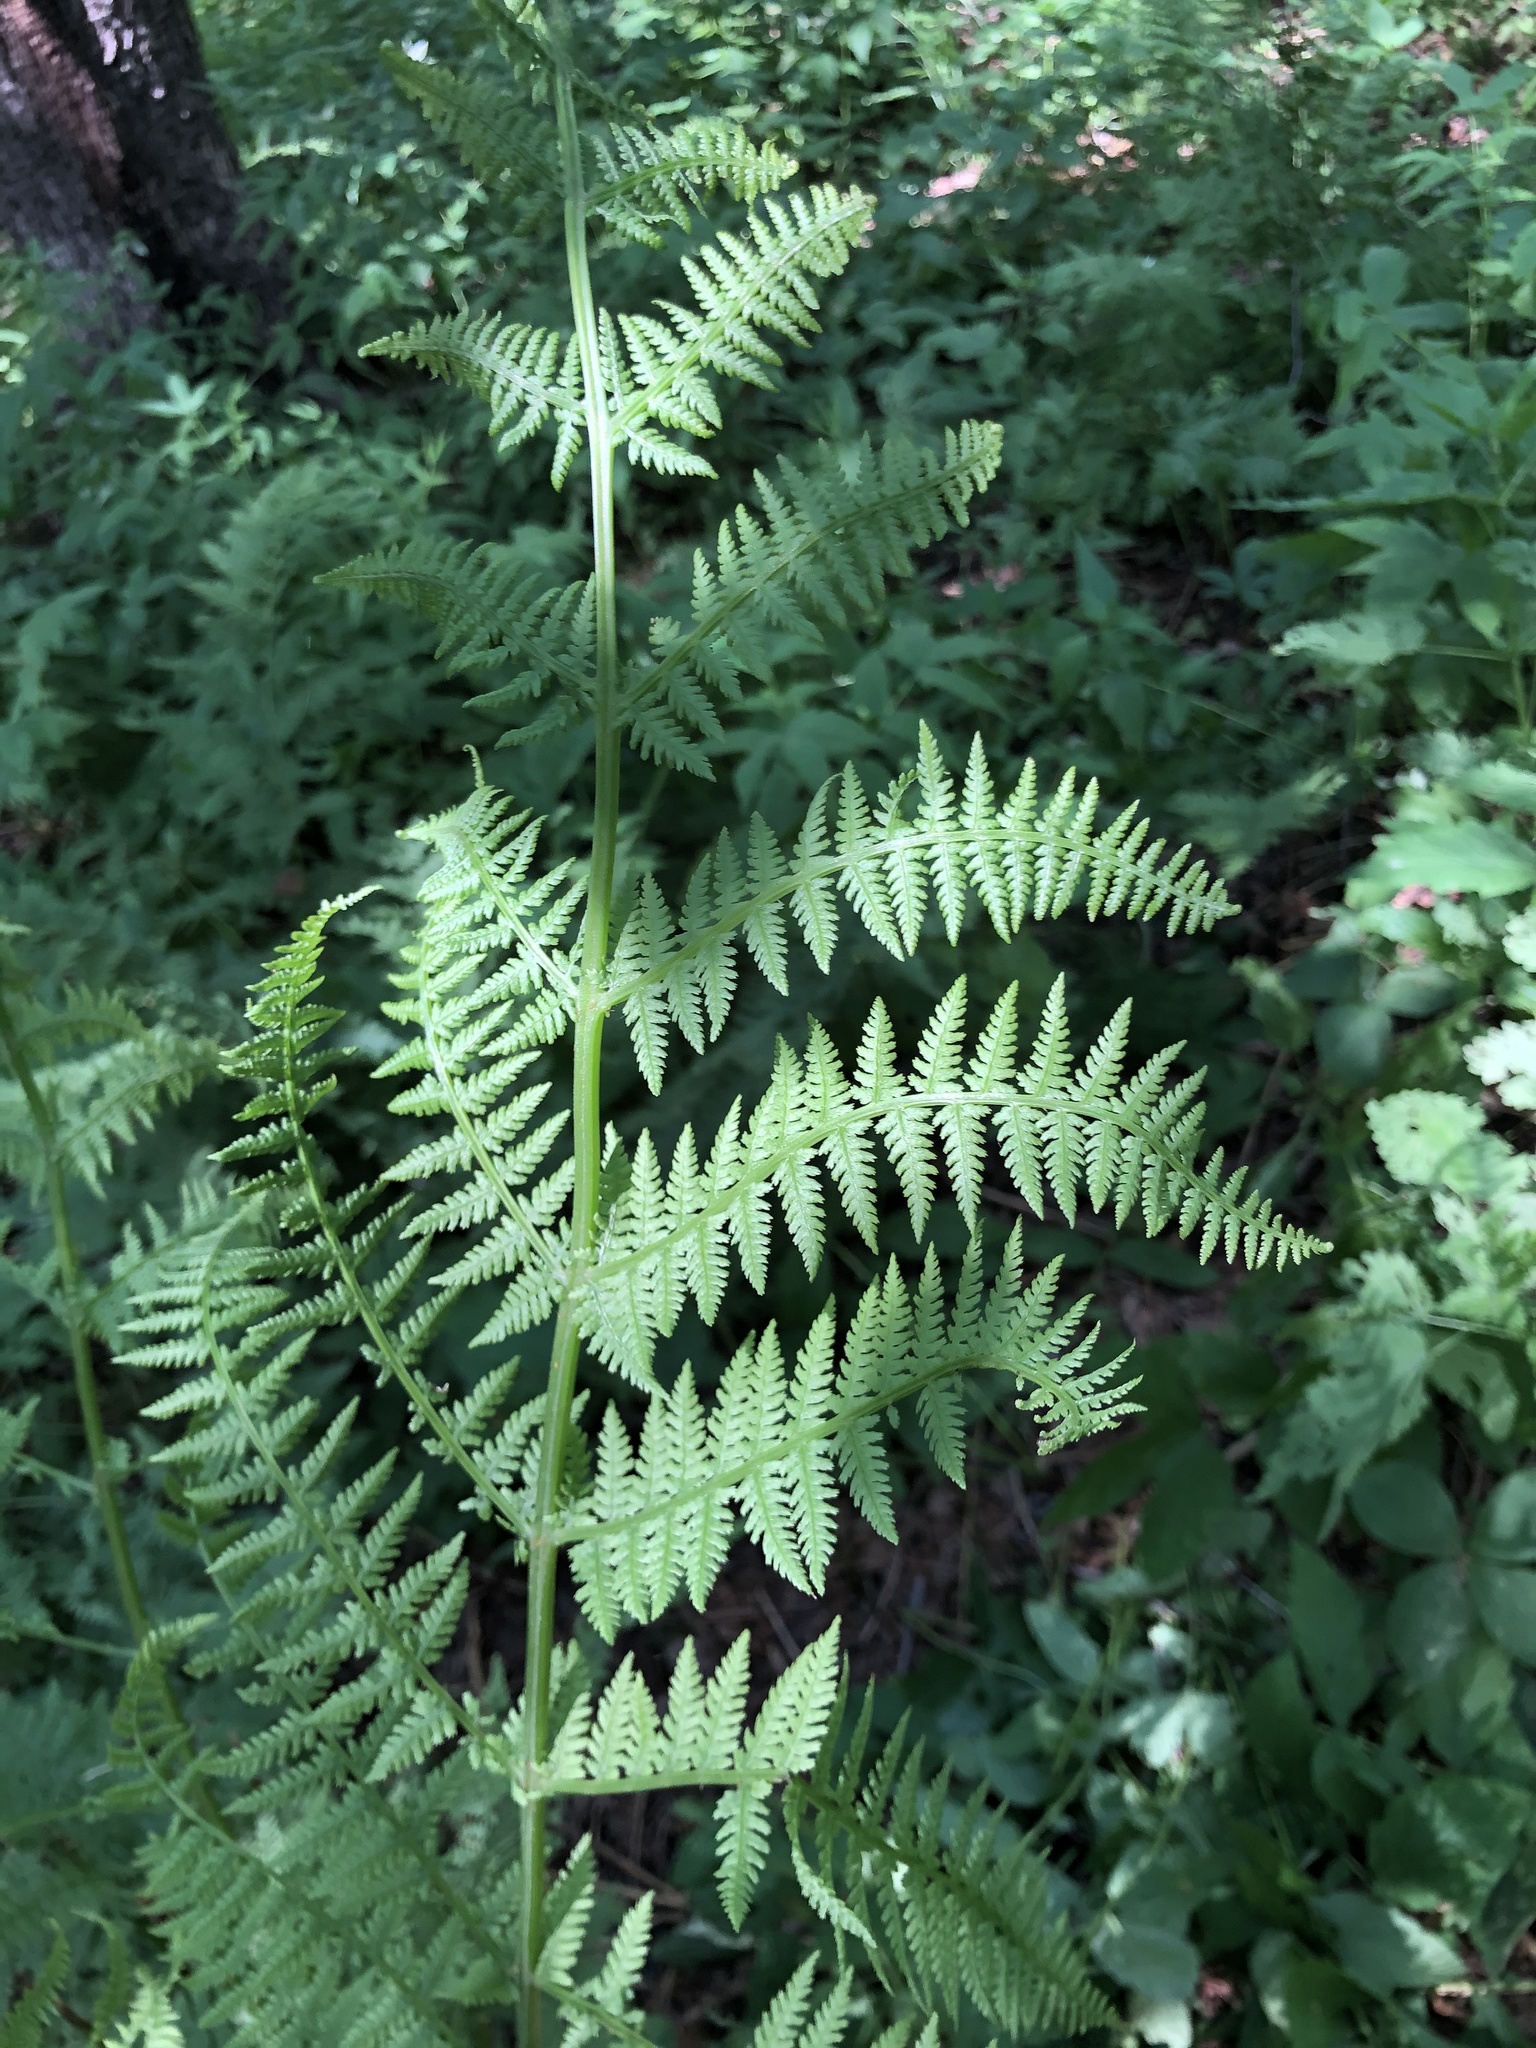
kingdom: Plantae
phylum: Tracheophyta
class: Polypodiopsida
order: Polypodiales
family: Athyriaceae
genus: Athyrium
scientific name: Athyrium filix-femina
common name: Lady fern
